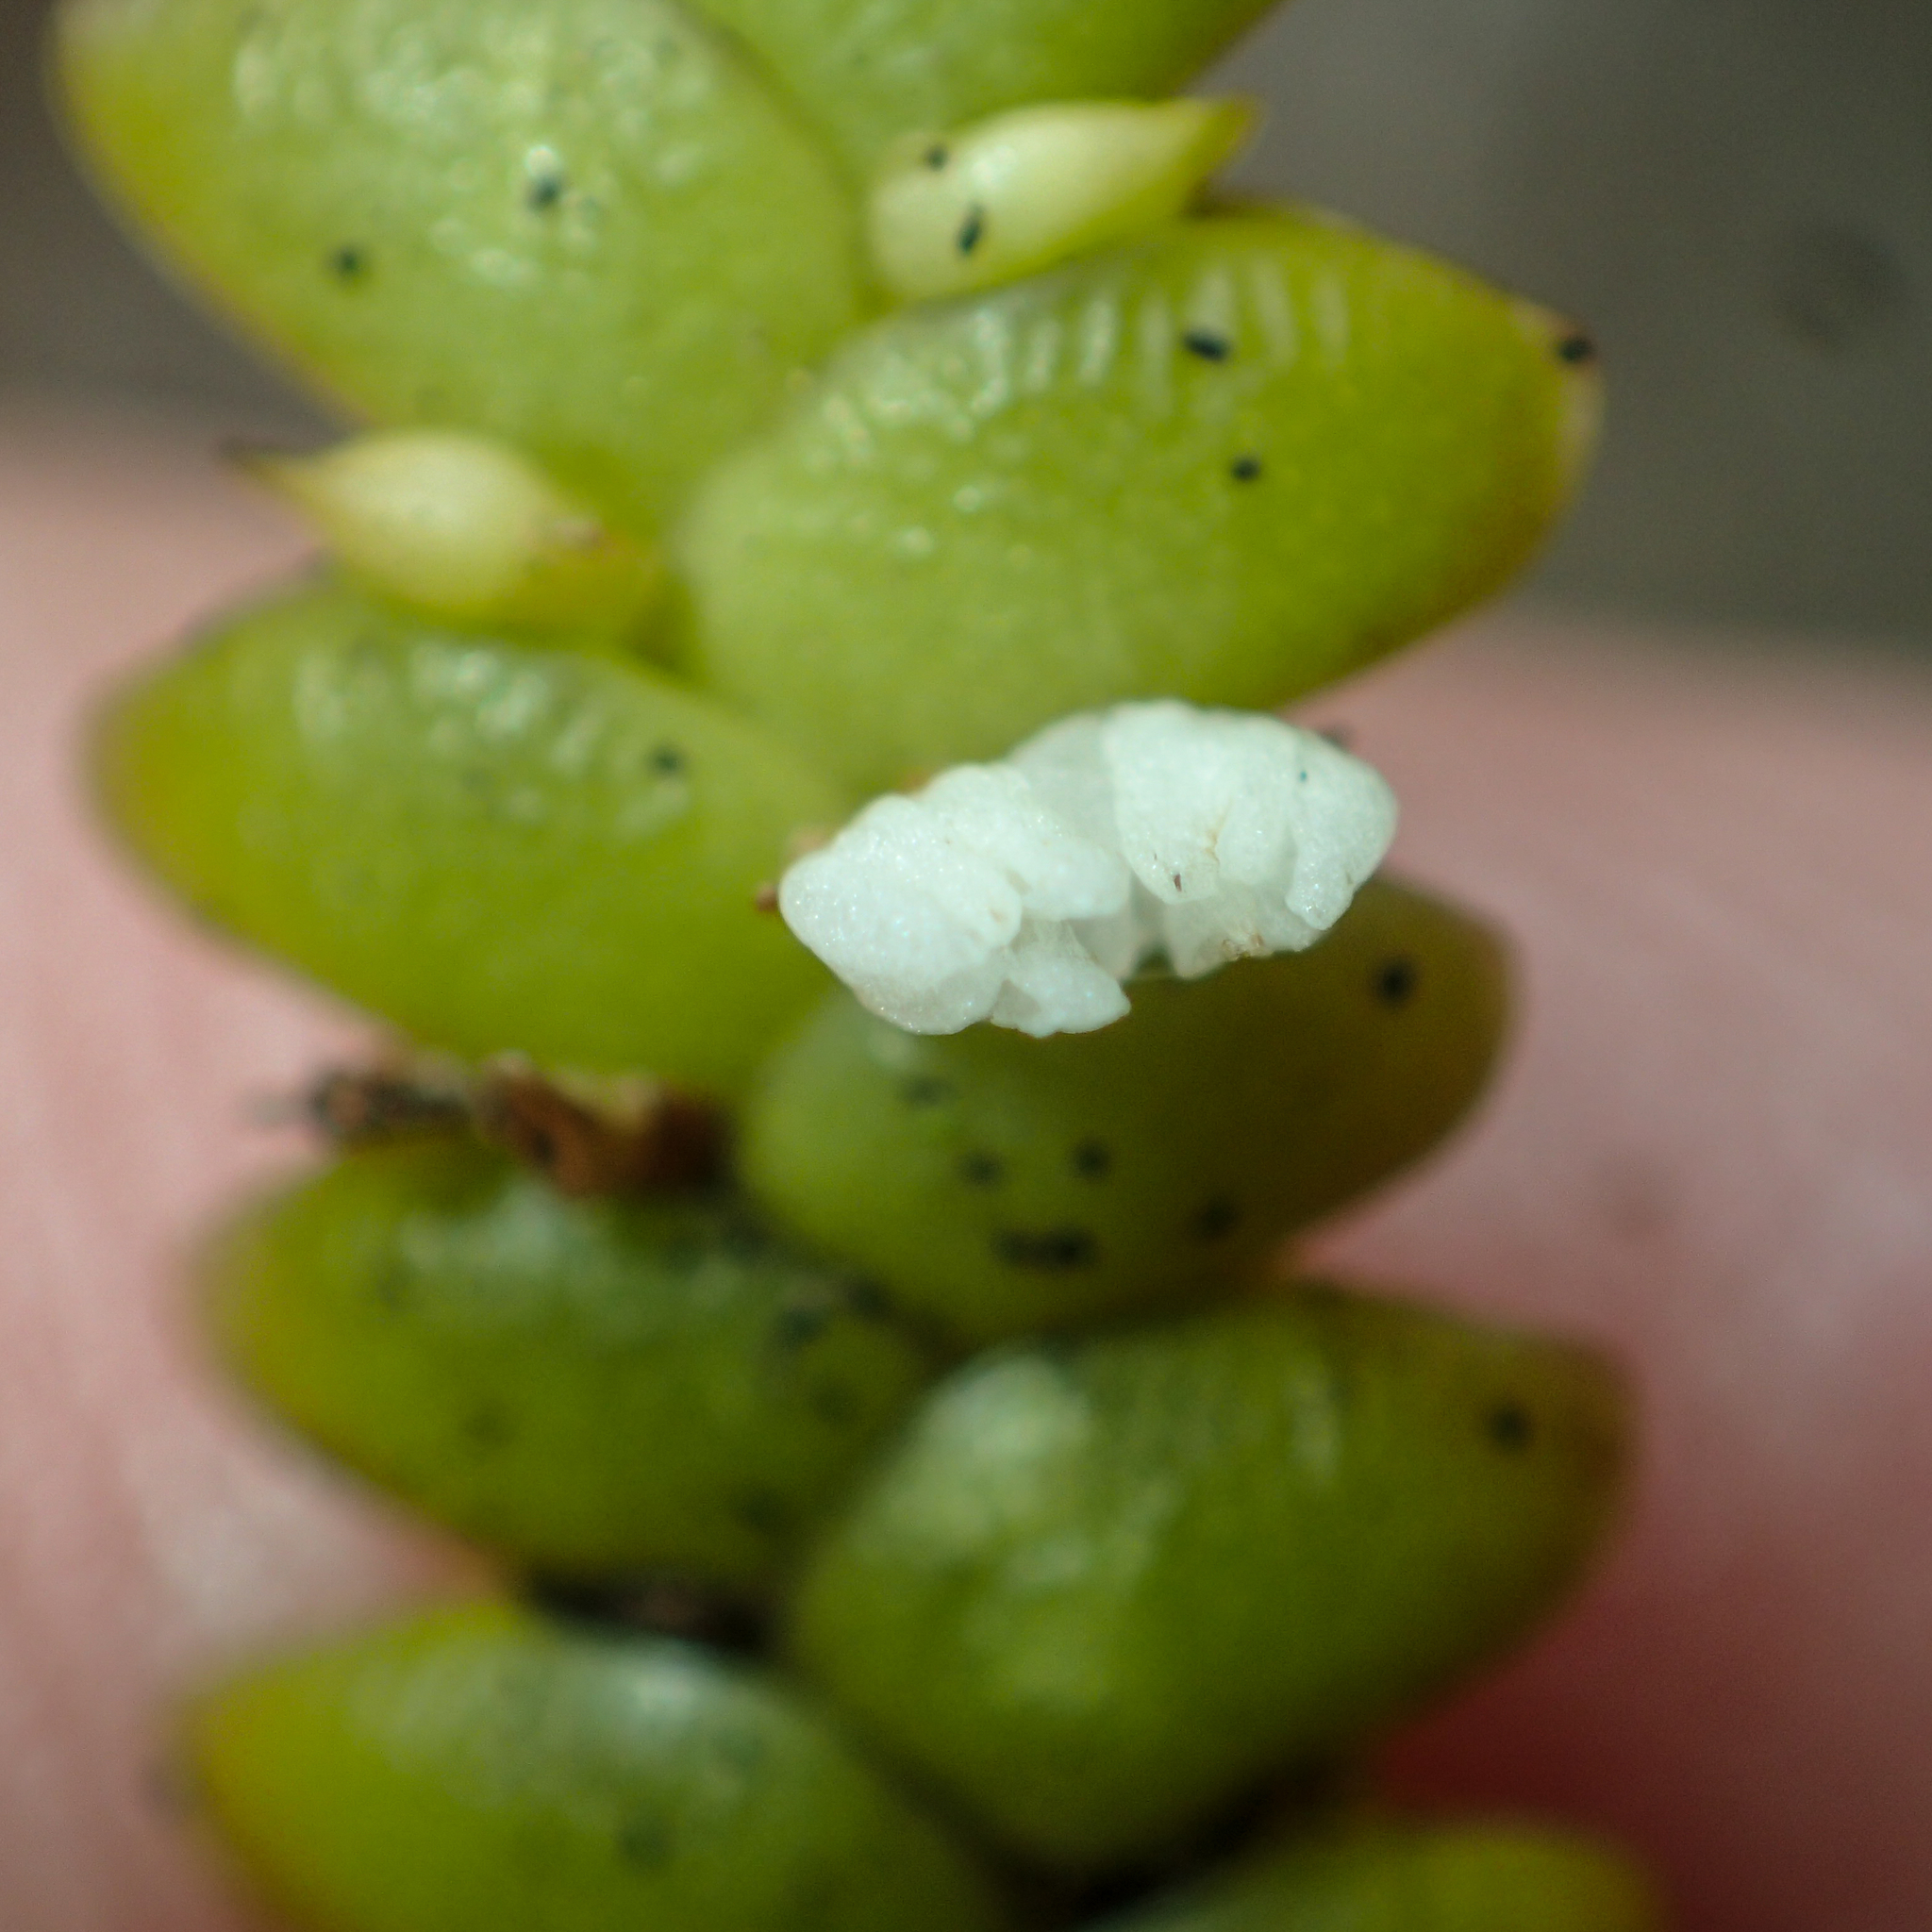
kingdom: Plantae
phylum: Tracheophyta
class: Liliopsida
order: Asparagales
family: Orchidaceae
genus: Microsaccus
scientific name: Microsaccus griffithii
